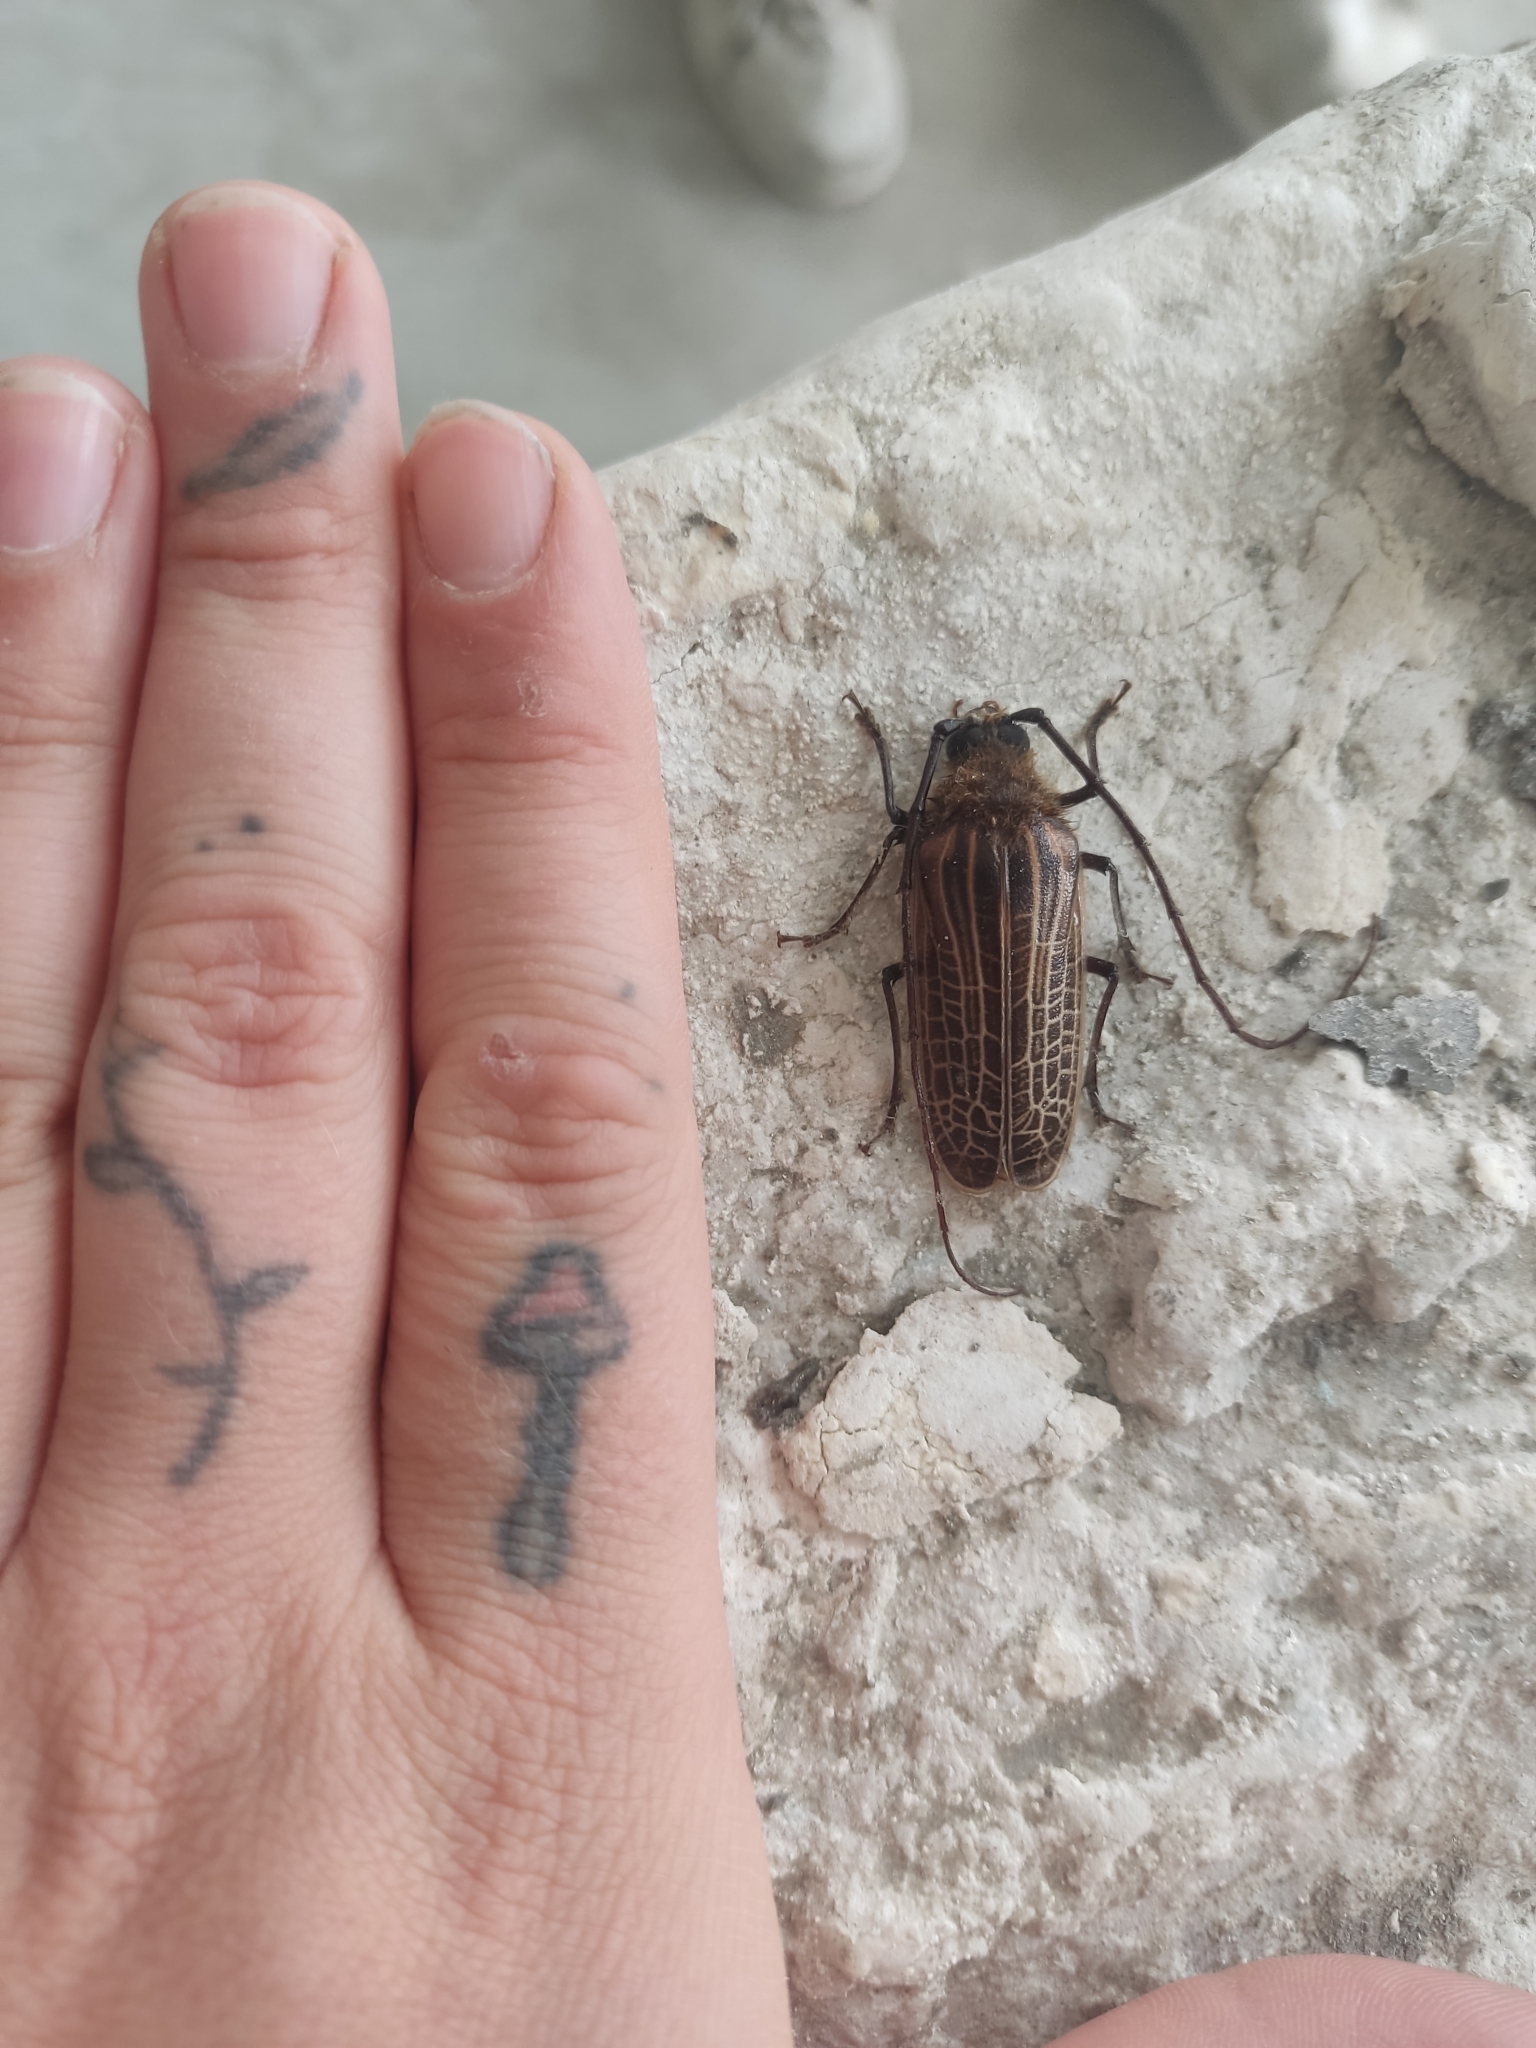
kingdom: Animalia
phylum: Arthropoda
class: Insecta
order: Coleoptera
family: Cerambycidae
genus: Prionoplus
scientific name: Prionoplus reticularis
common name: Huhu beetle
